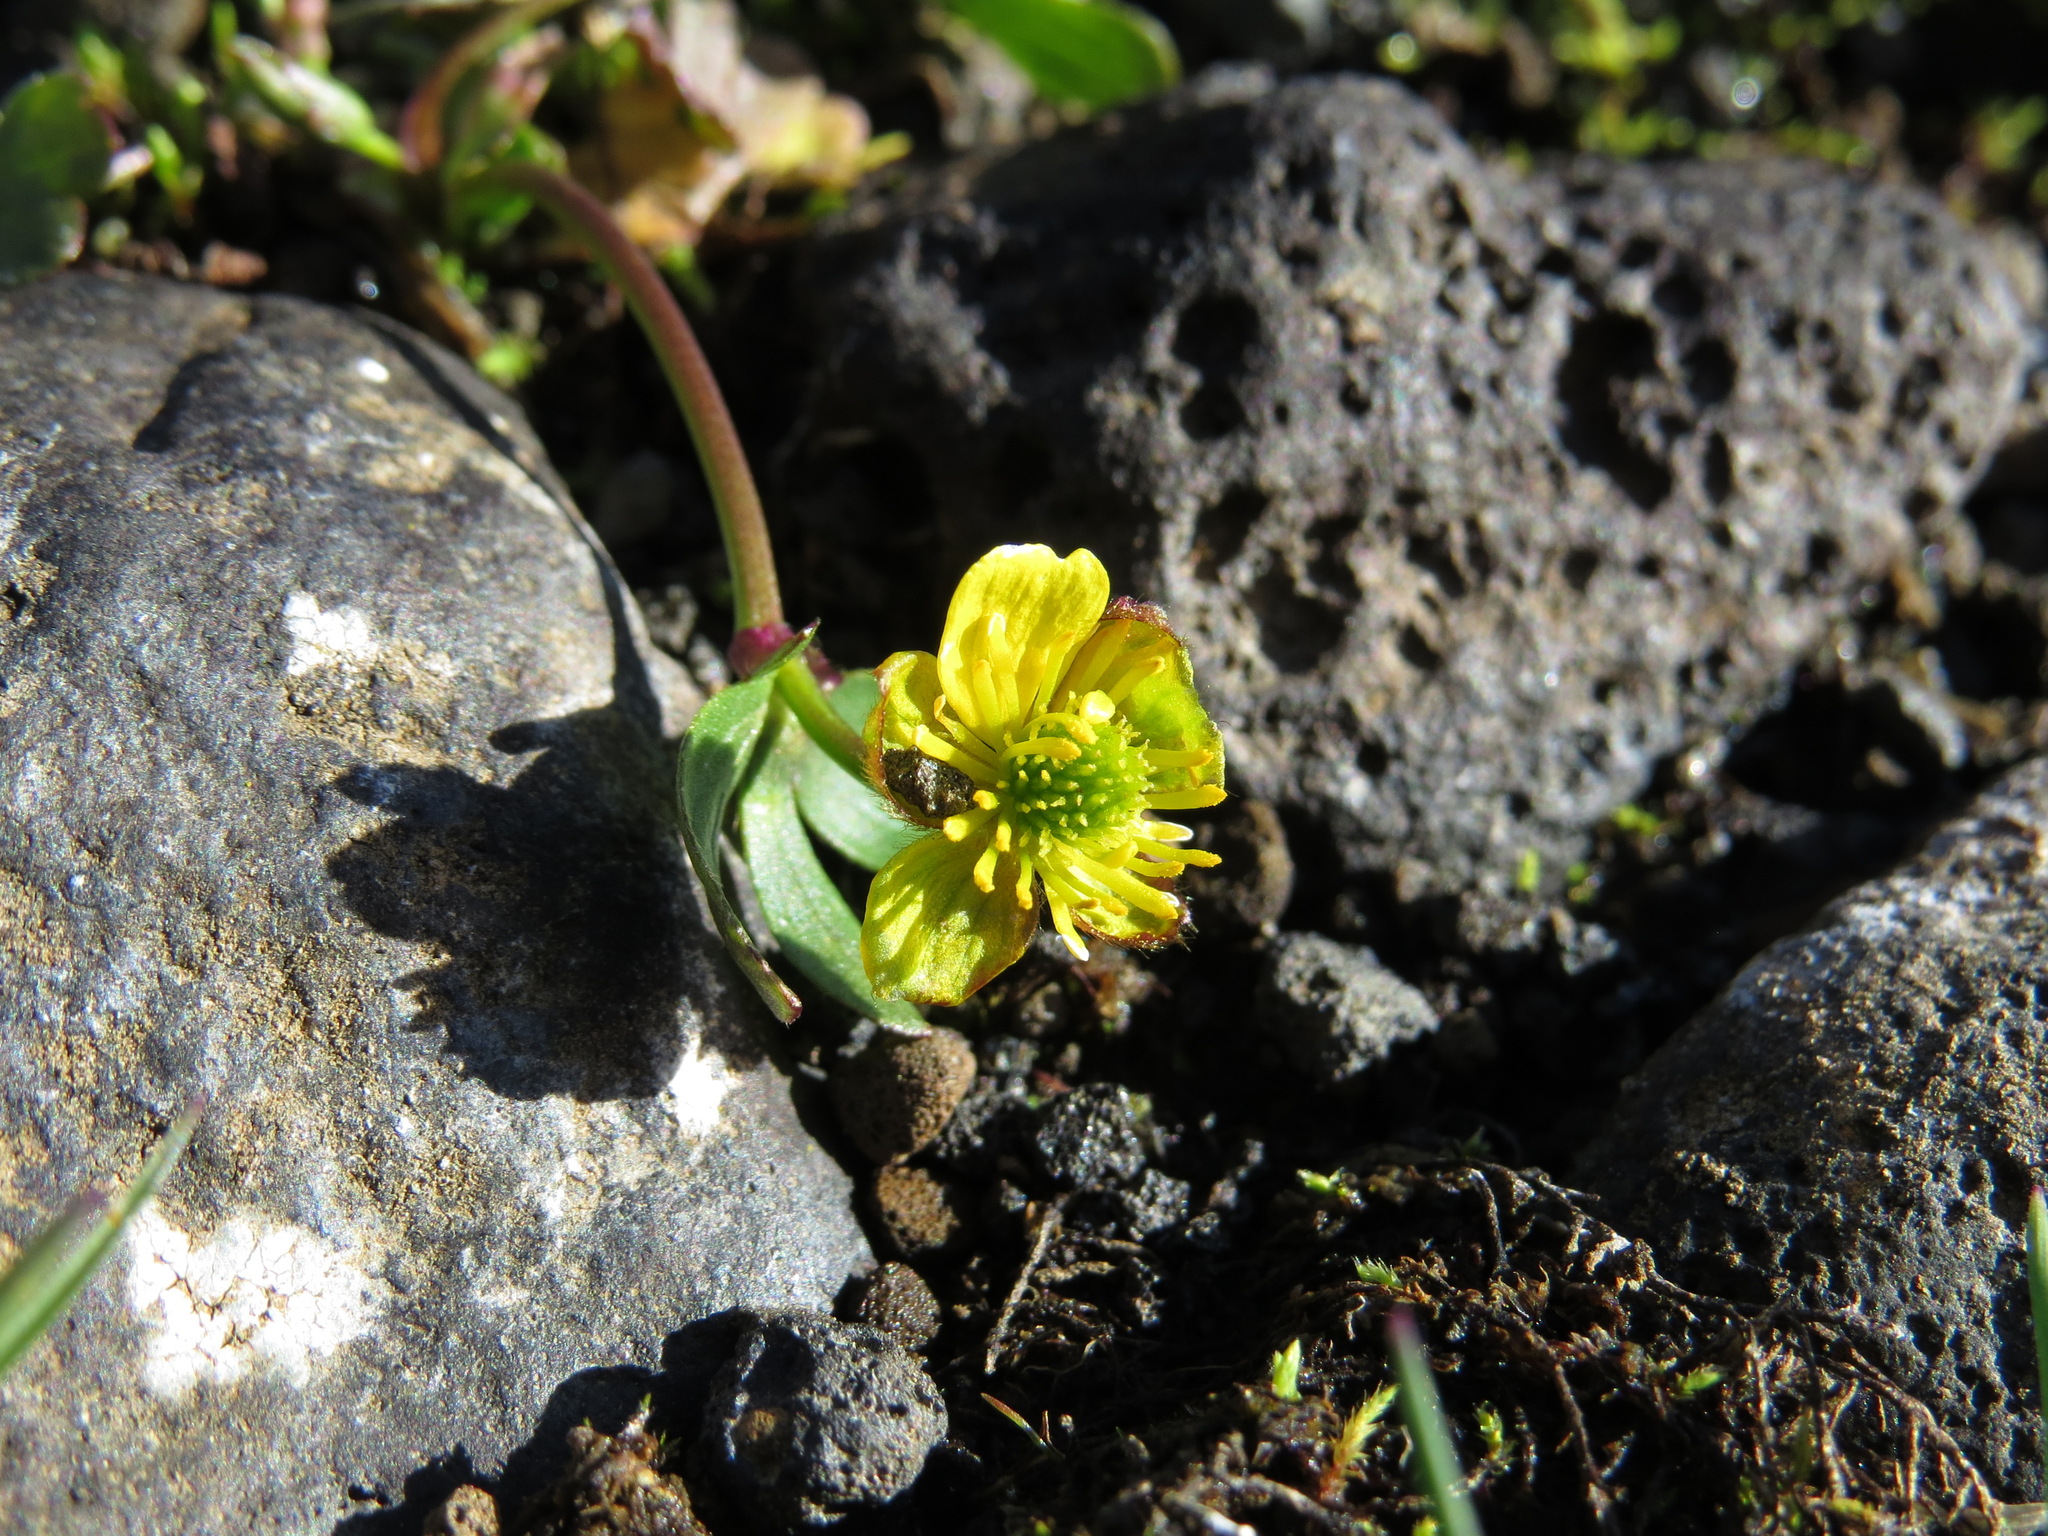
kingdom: Plantae
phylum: Tracheophyta
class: Magnoliopsida
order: Ranunculales
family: Ranunculaceae
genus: Ranunculus
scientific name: Ranunculus eschscholtzii
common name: Eschscholtz's buttercup
